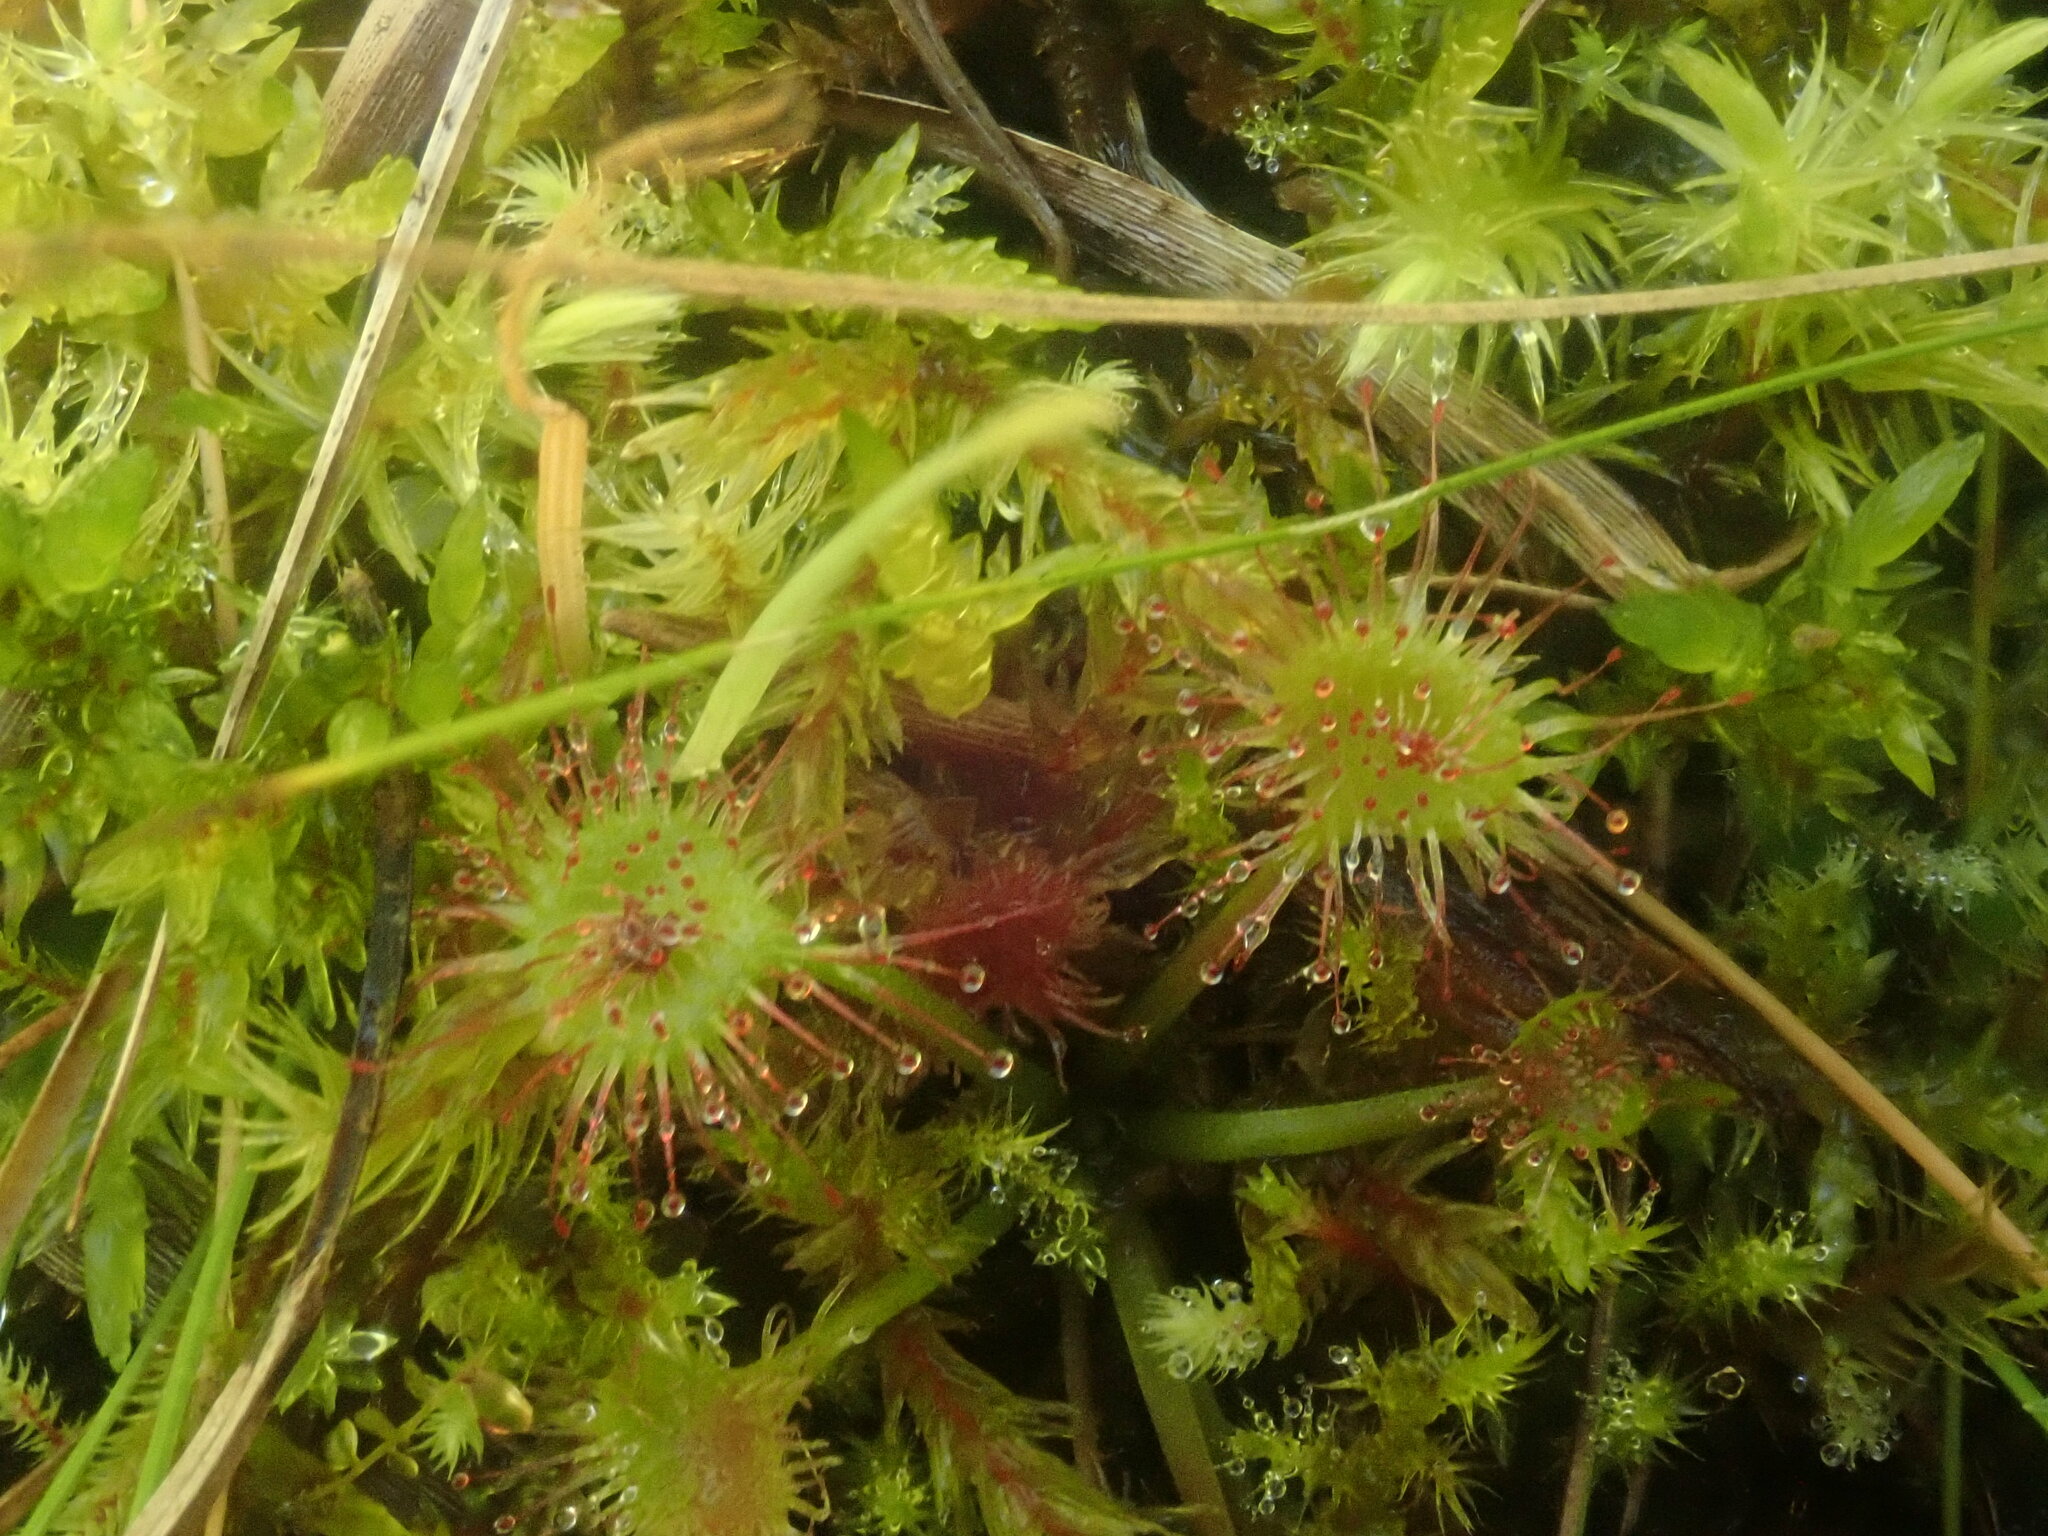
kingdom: Plantae
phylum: Tracheophyta
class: Magnoliopsida
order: Caryophyllales
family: Droseraceae
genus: Drosera
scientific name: Drosera rotundifolia
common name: Round-leaved sundew
